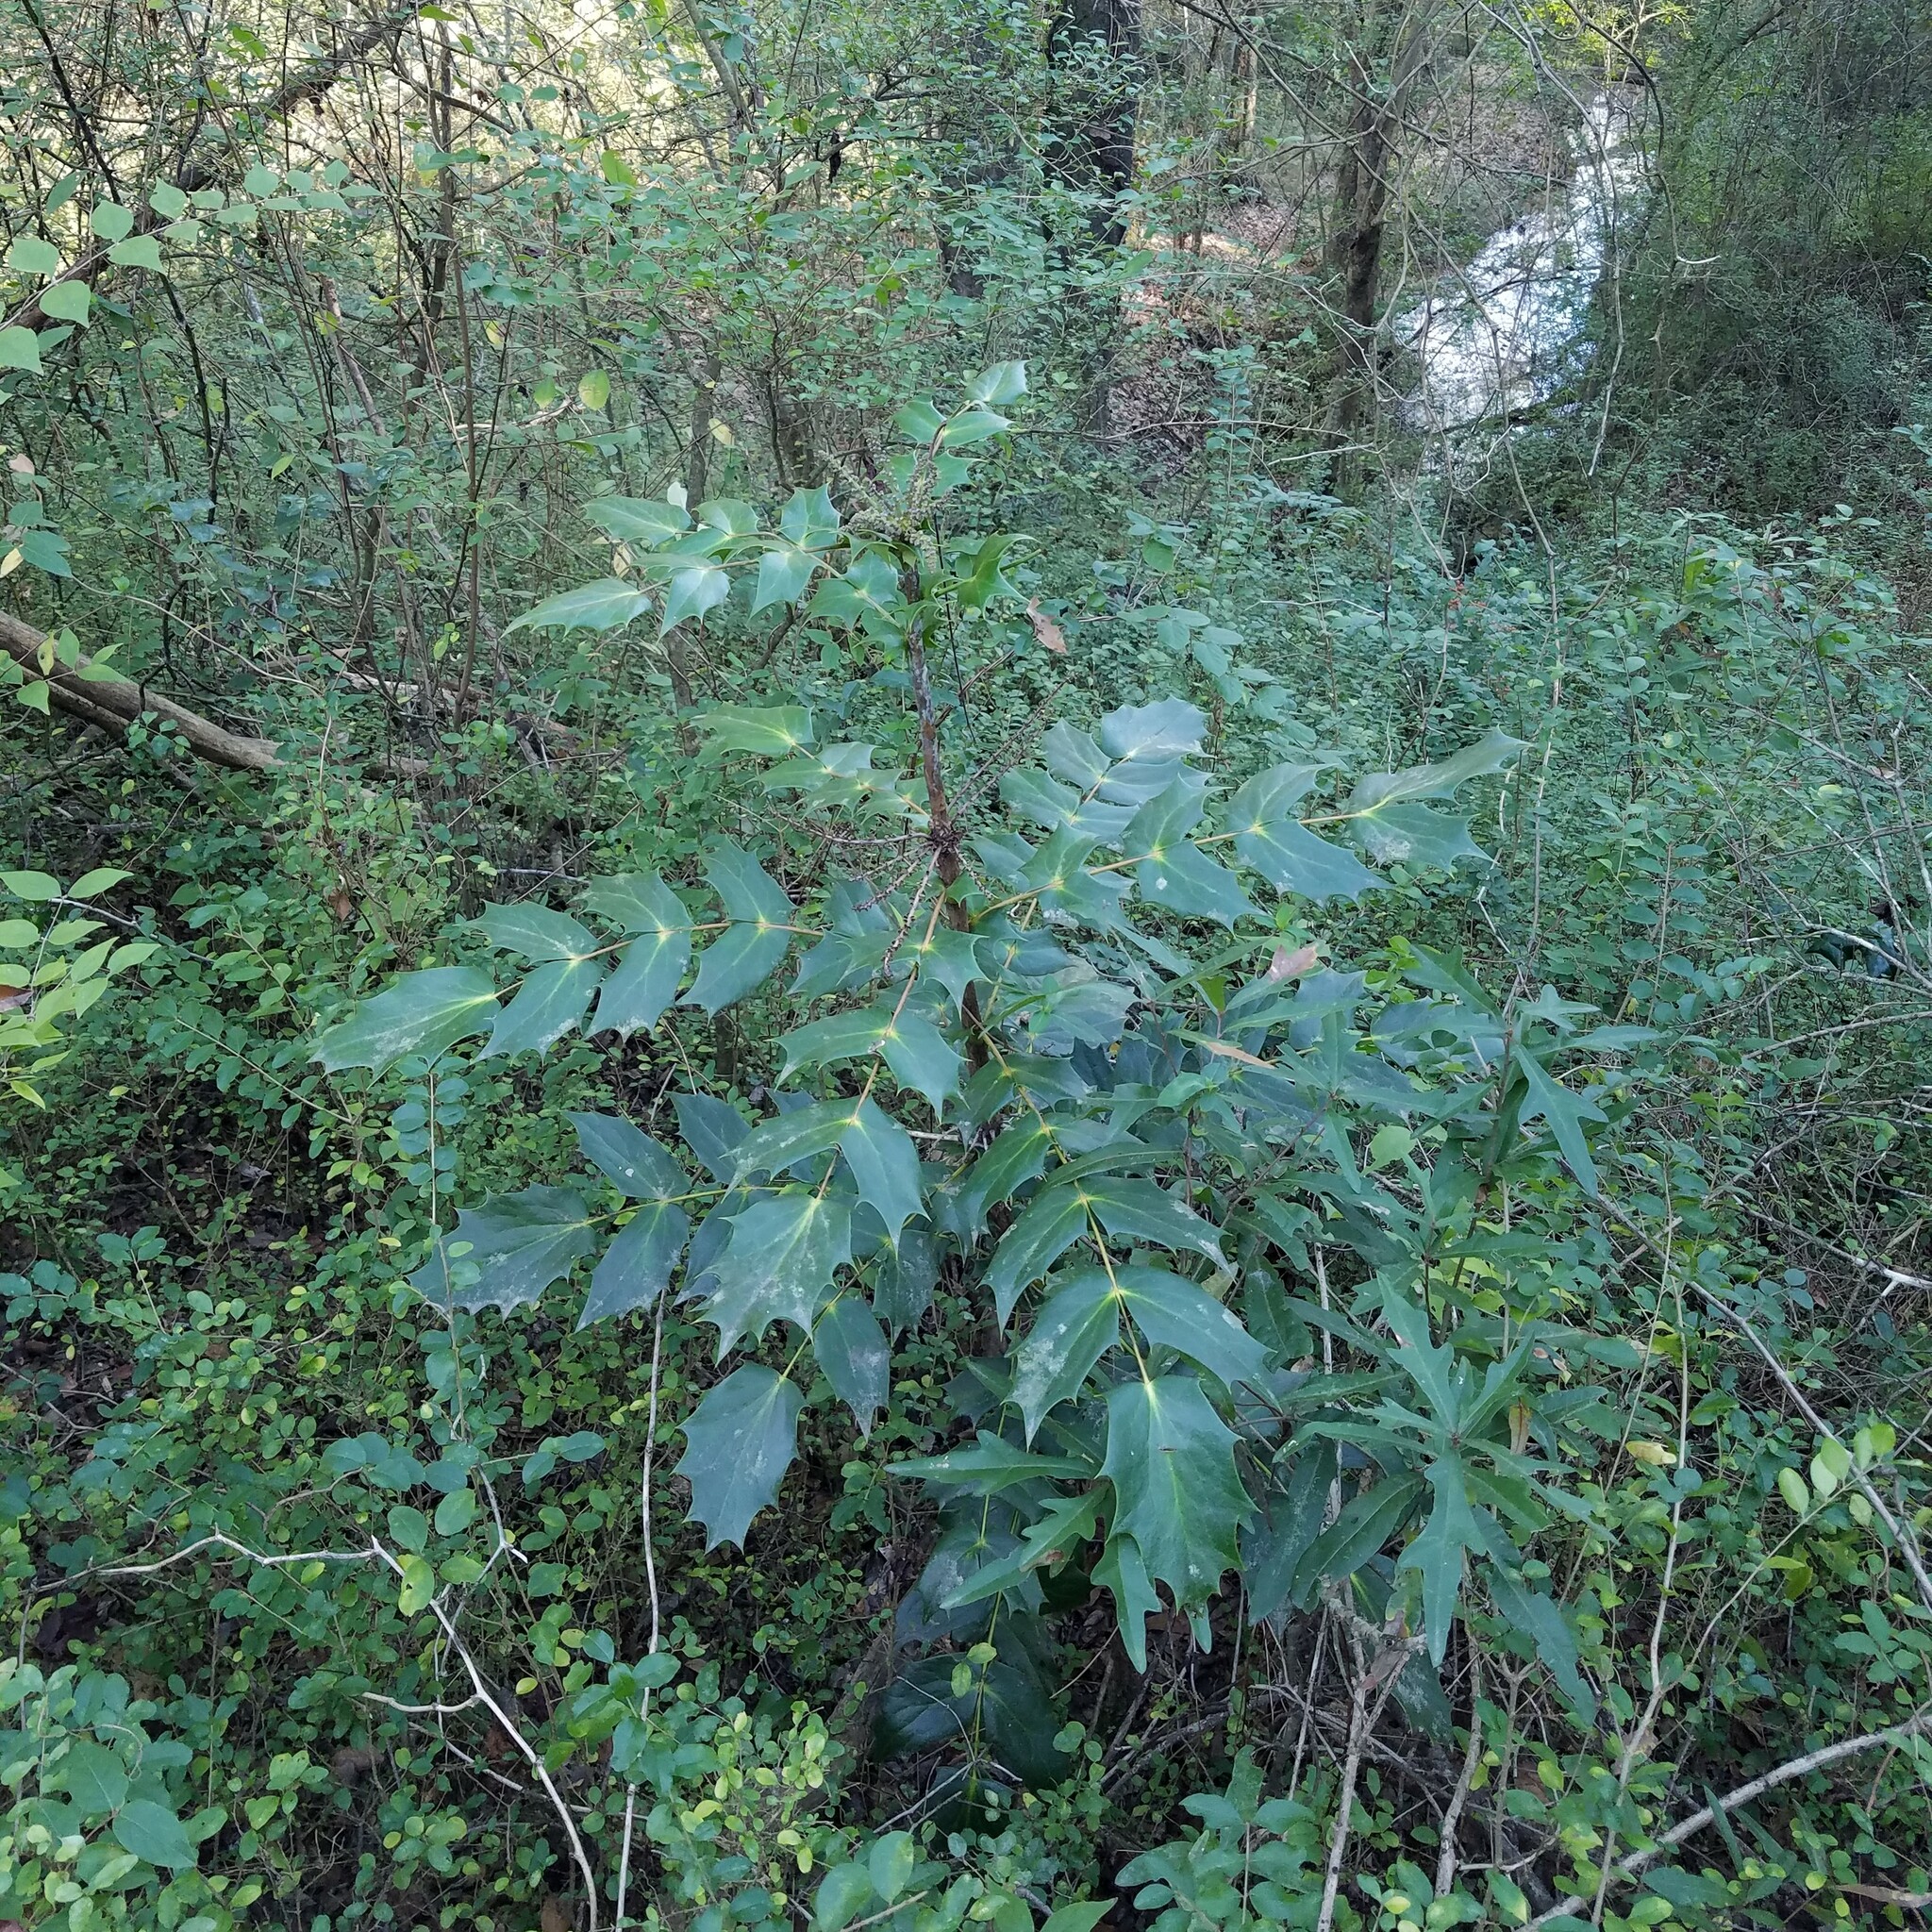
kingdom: Plantae
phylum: Tracheophyta
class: Magnoliopsida
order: Ranunculales
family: Berberidaceae
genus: Mahonia
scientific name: Mahonia bealei
